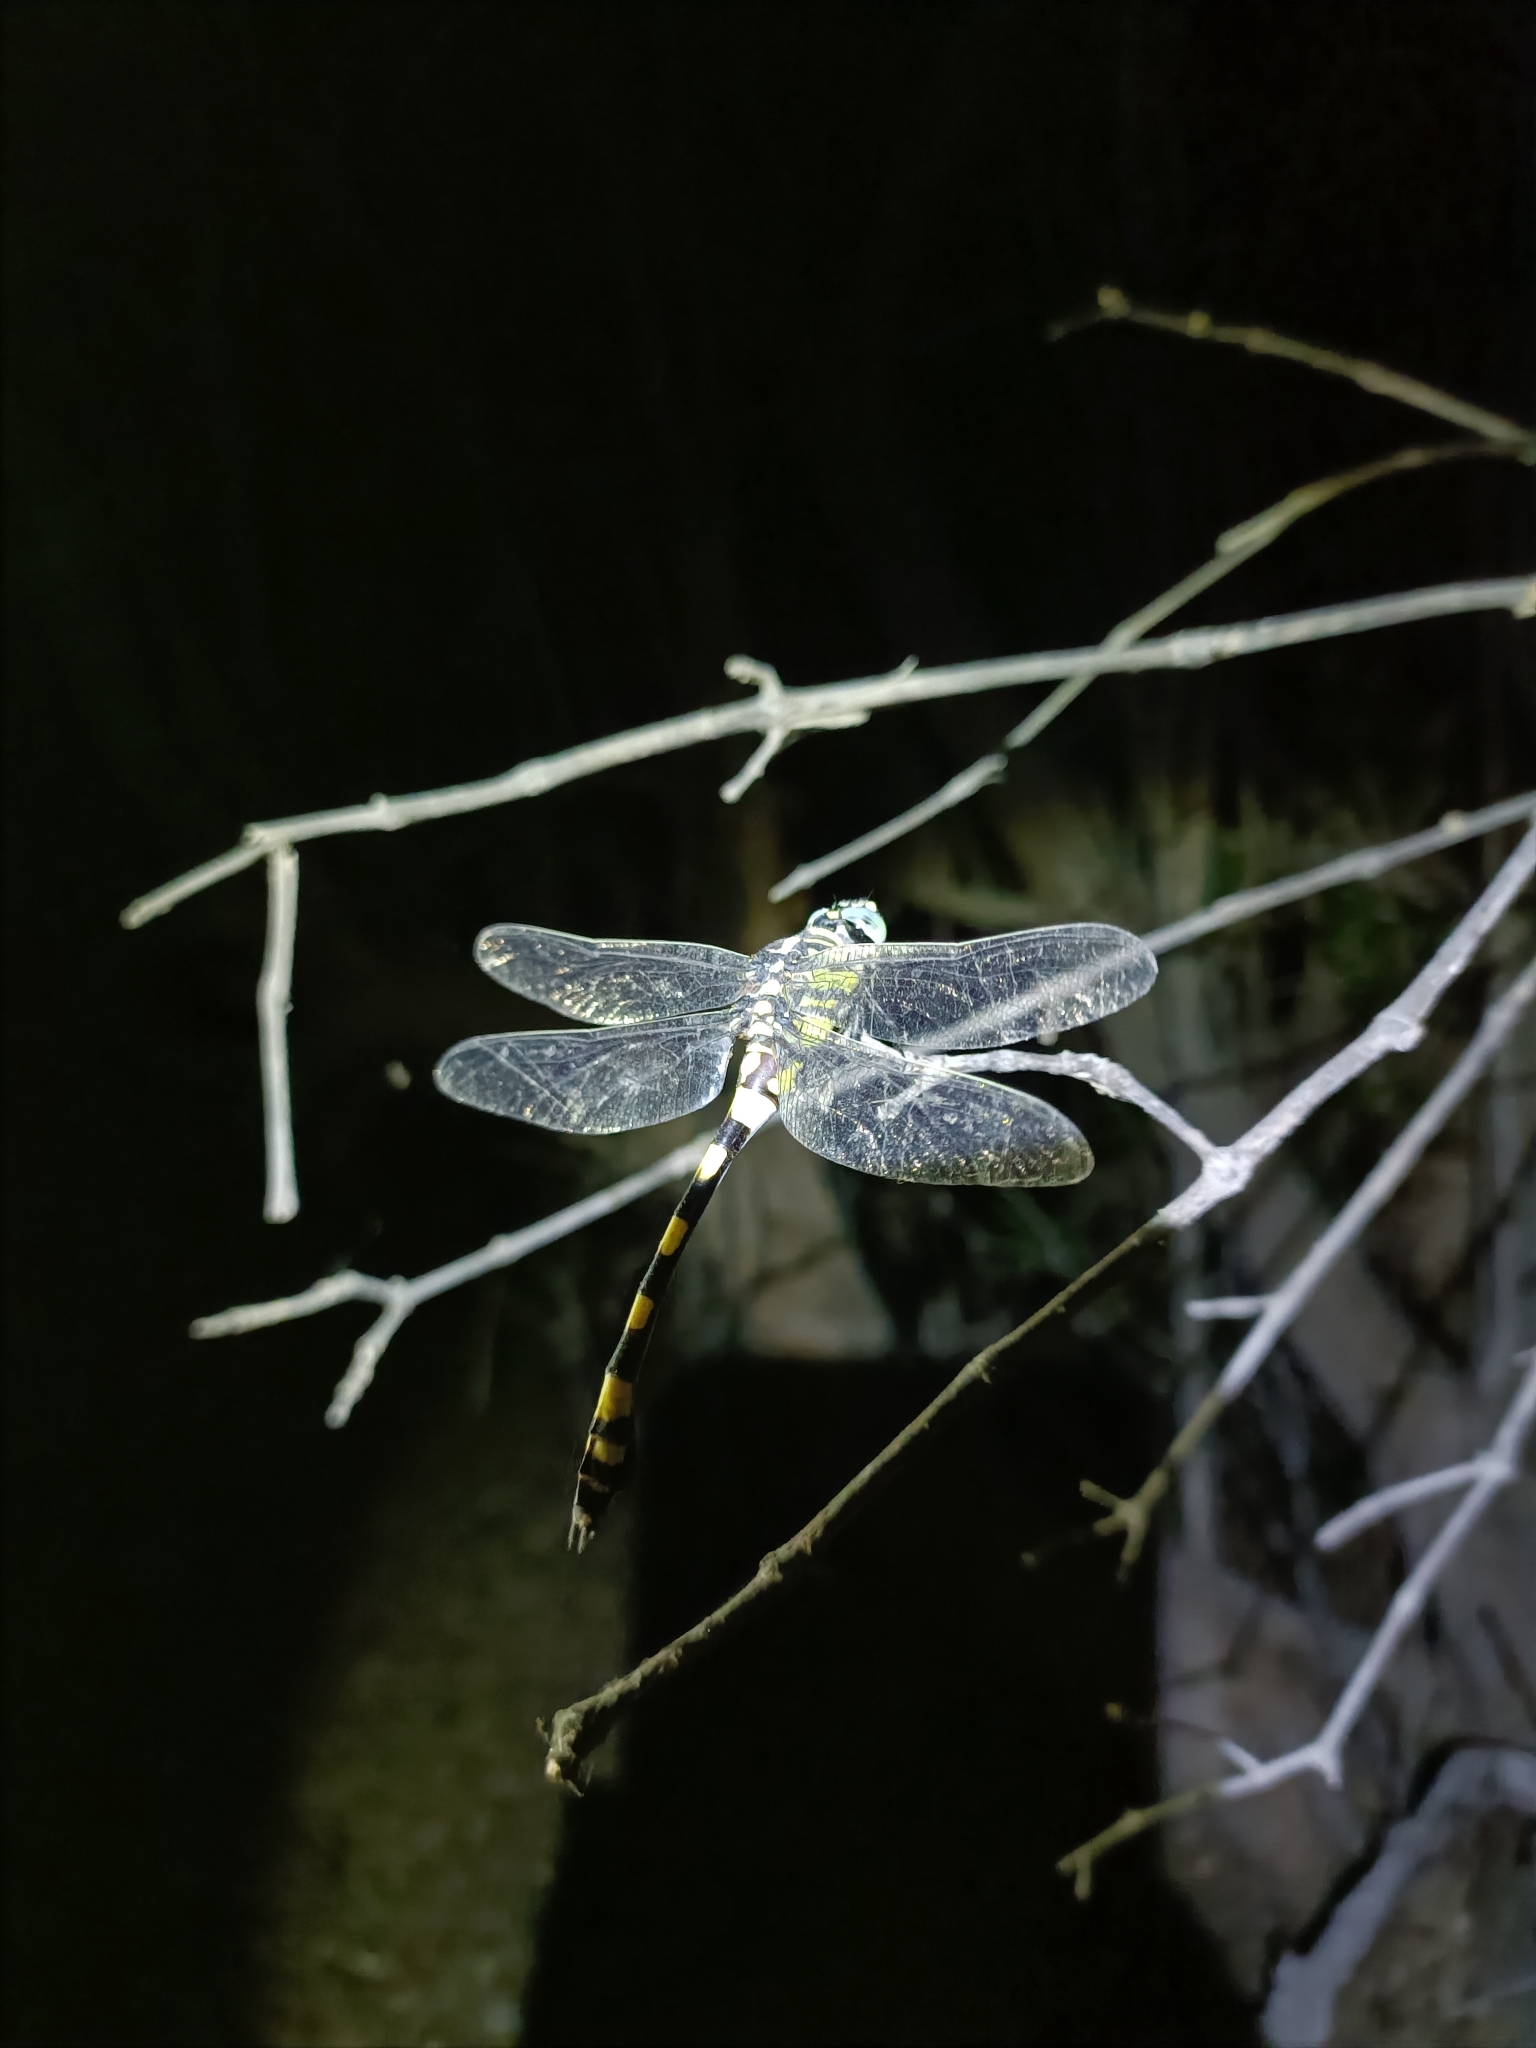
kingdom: Animalia
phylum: Arthropoda
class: Insecta
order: Odonata
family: Gomphidae
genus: Ictinogomphus
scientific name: Ictinogomphus rapax
